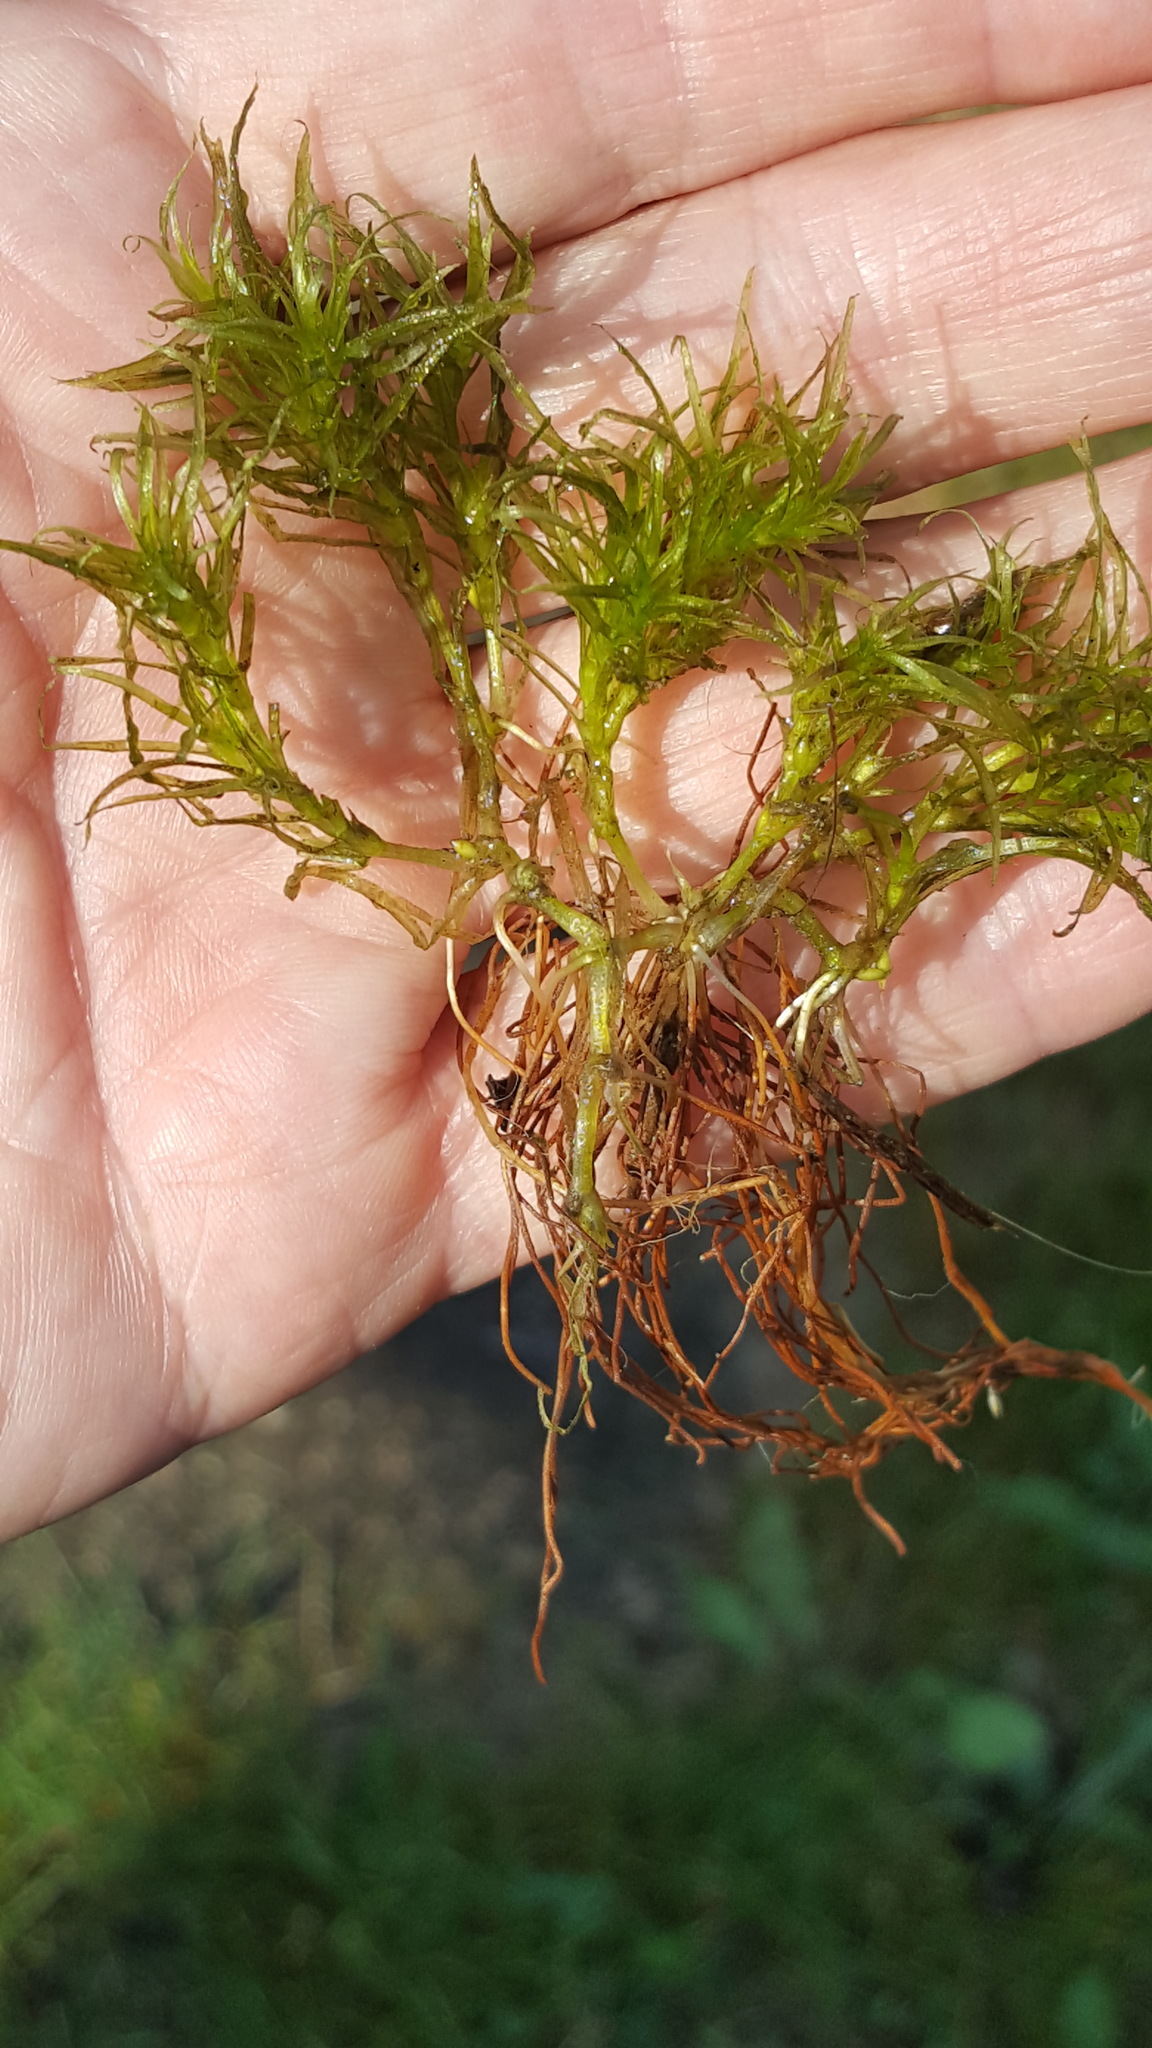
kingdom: Plantae
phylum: Tracheophyta
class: Liliopsida
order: Alismatales
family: Hydrocharitaceae
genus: Najas
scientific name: Najas flexilis
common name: Slender naiad
